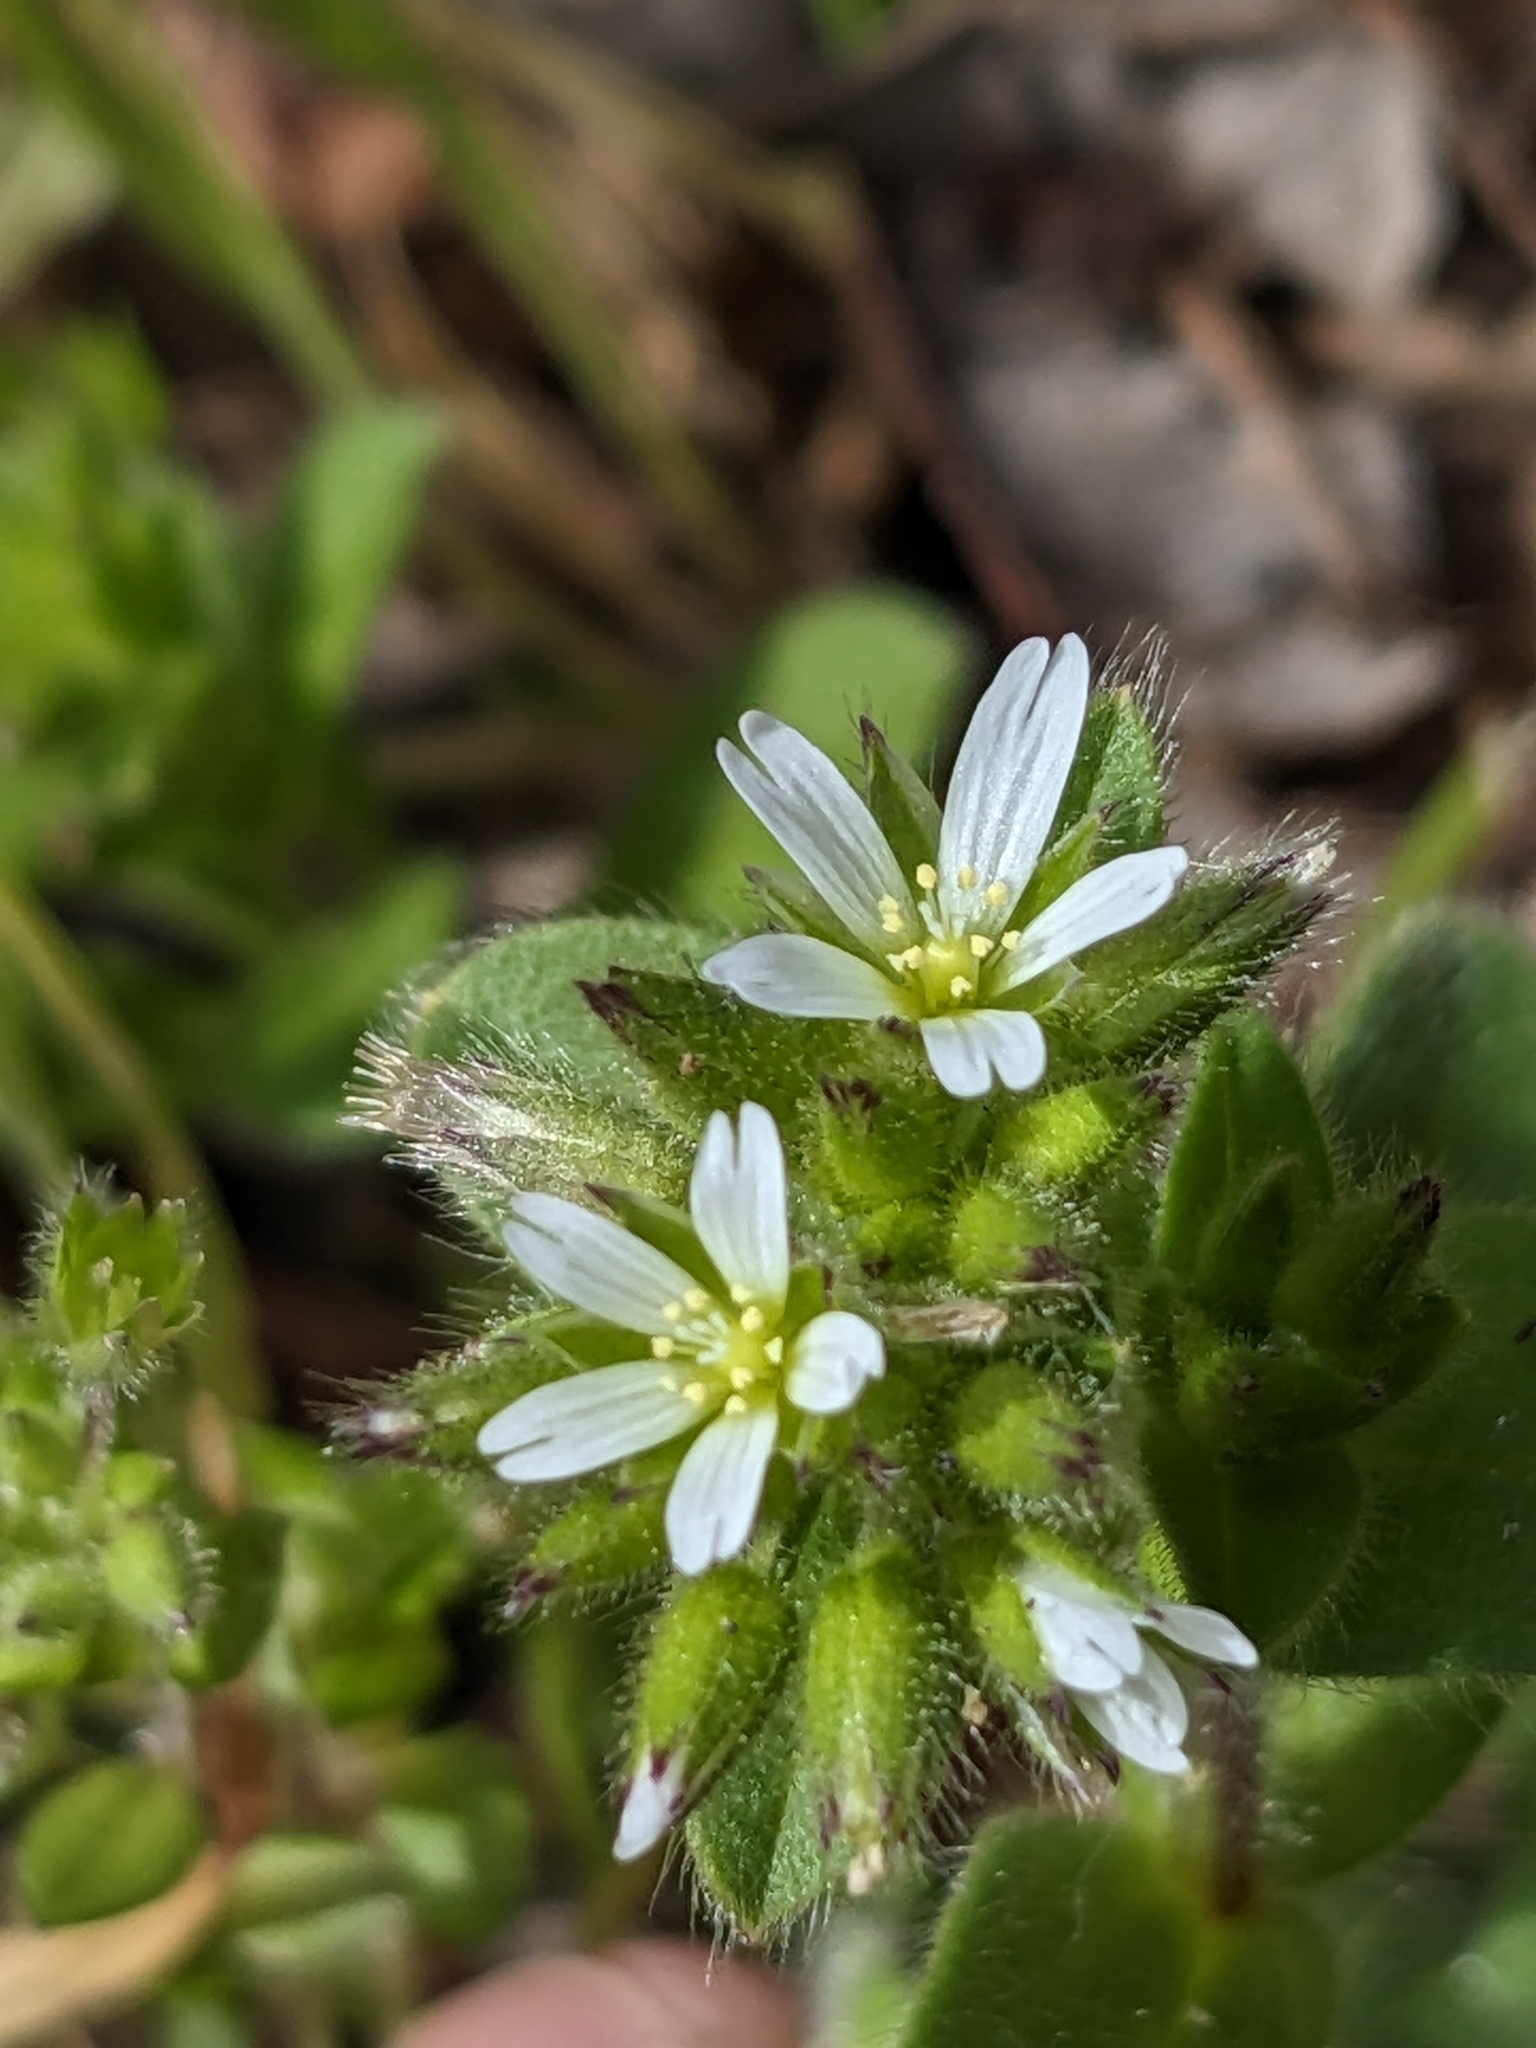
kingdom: Plantae
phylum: Tracheophyta
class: Magnoliopsida
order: Caryophyllales
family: Caryophyllaceae
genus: Cerastium
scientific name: Cerastium glomeratum
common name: Sticky chickweed
